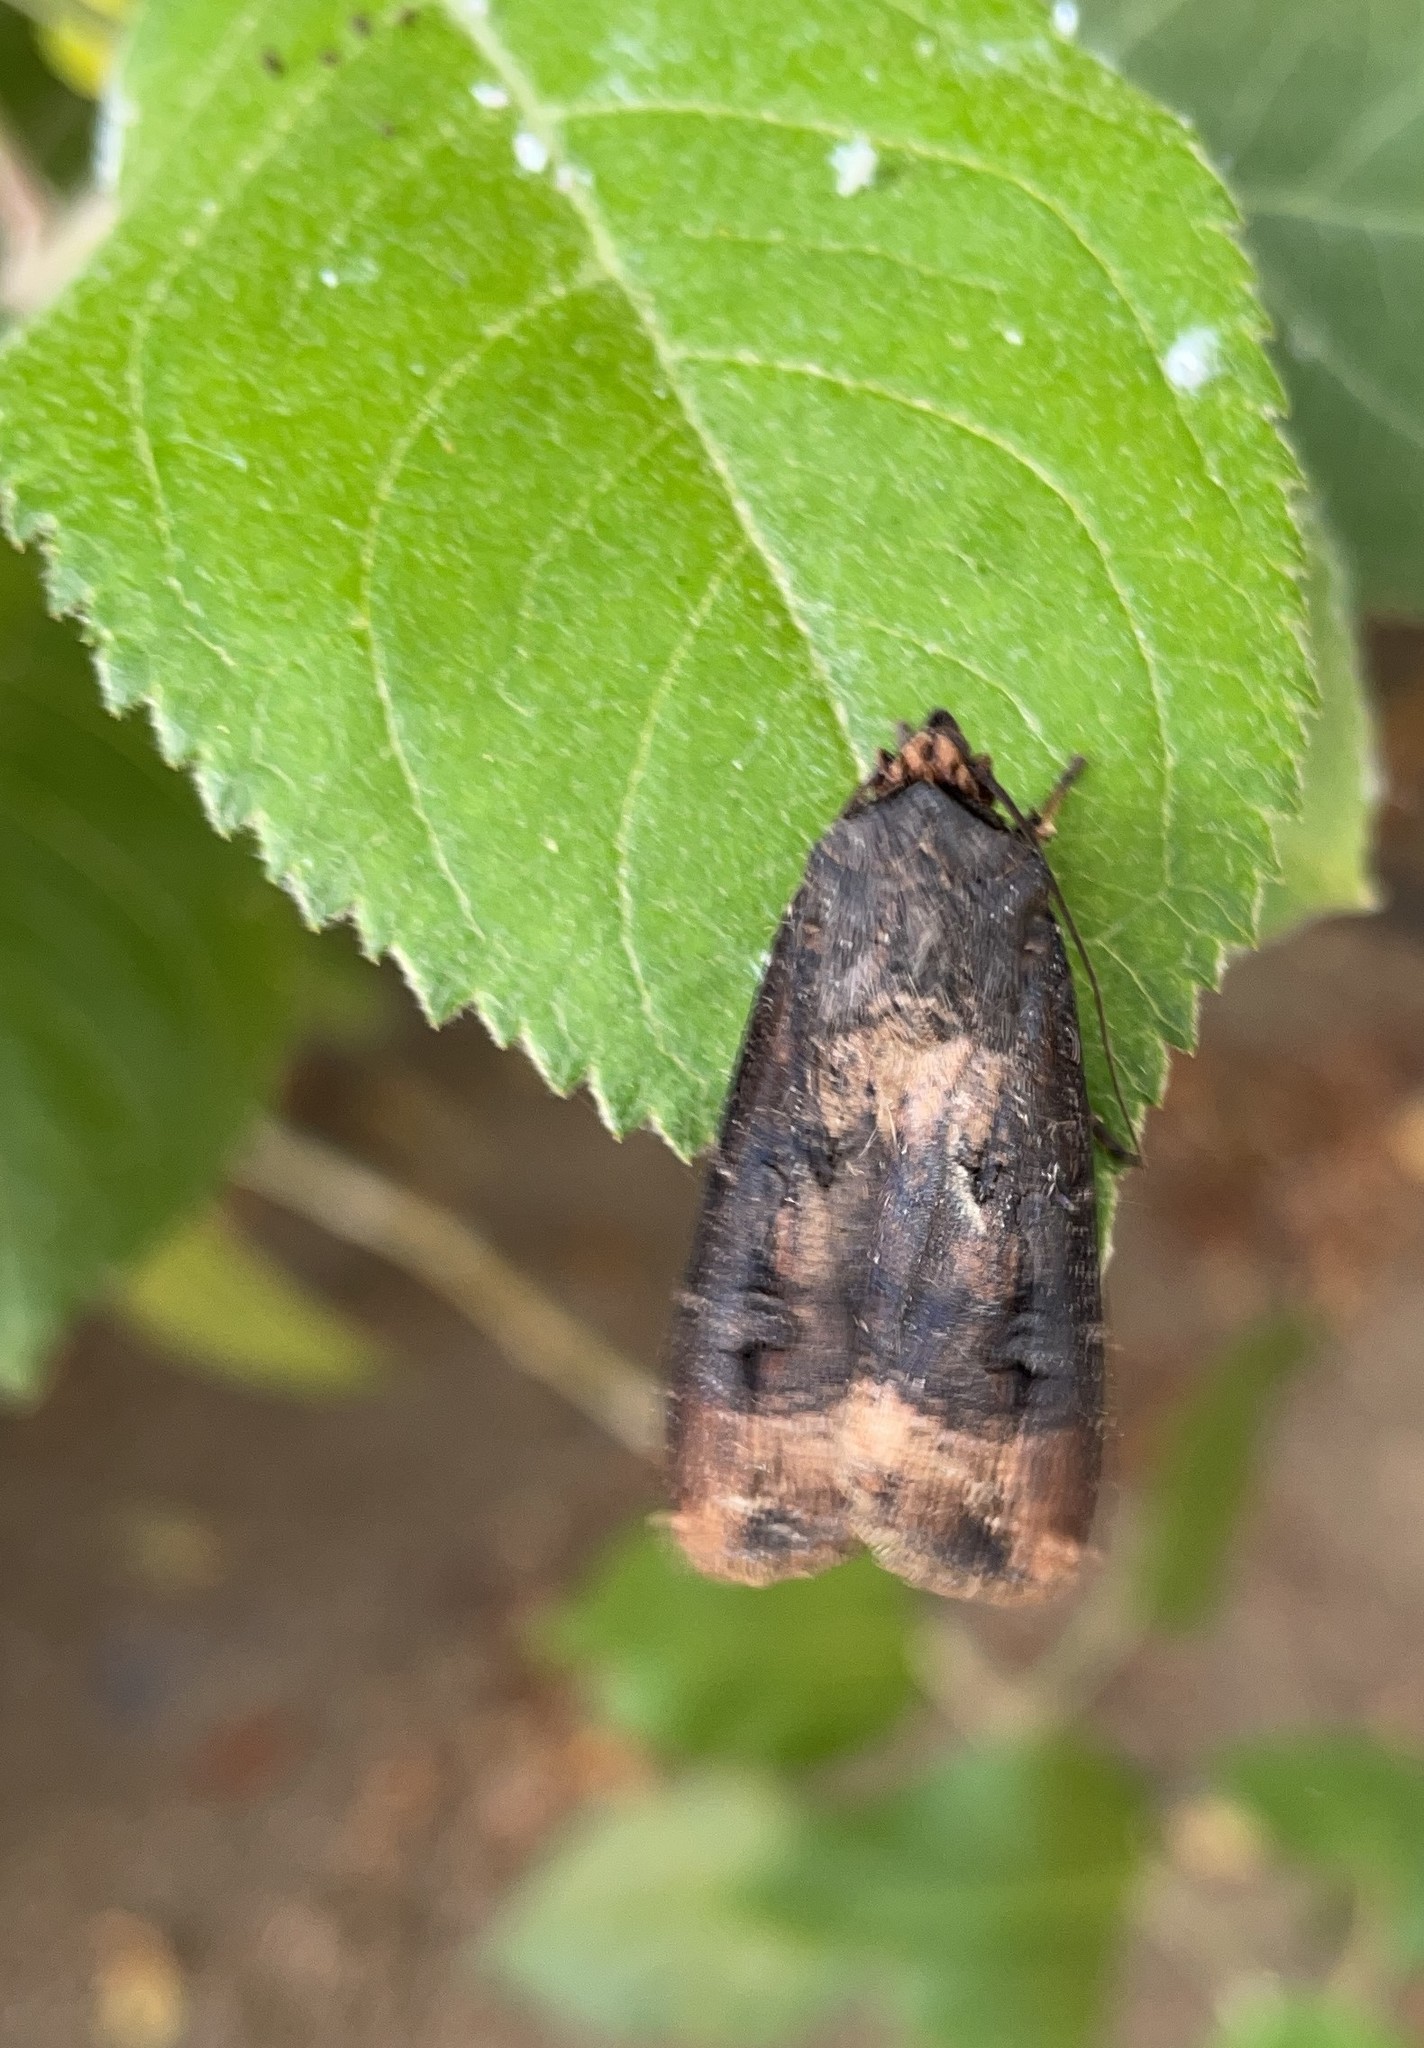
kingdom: Animalia
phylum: Arthropoda
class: Insecta
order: Lepidoptera
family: Noctuidae
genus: Agrotis
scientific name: Agrotis ipsilon
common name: Dark sword-grass
